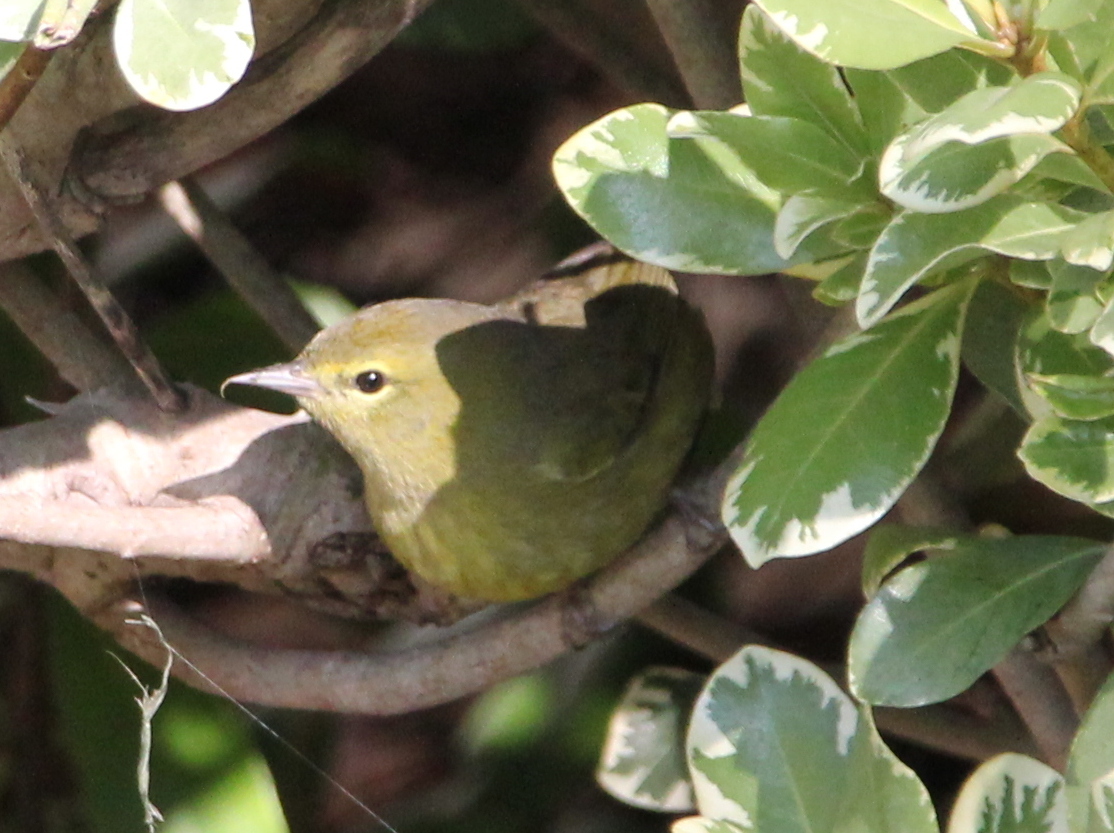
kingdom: Animalia
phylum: Chordata
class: Aves
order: Passeriformes
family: Parulidae
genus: Leiothlypis
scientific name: Leiothlypis celata
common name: Orange-crowned warbler
